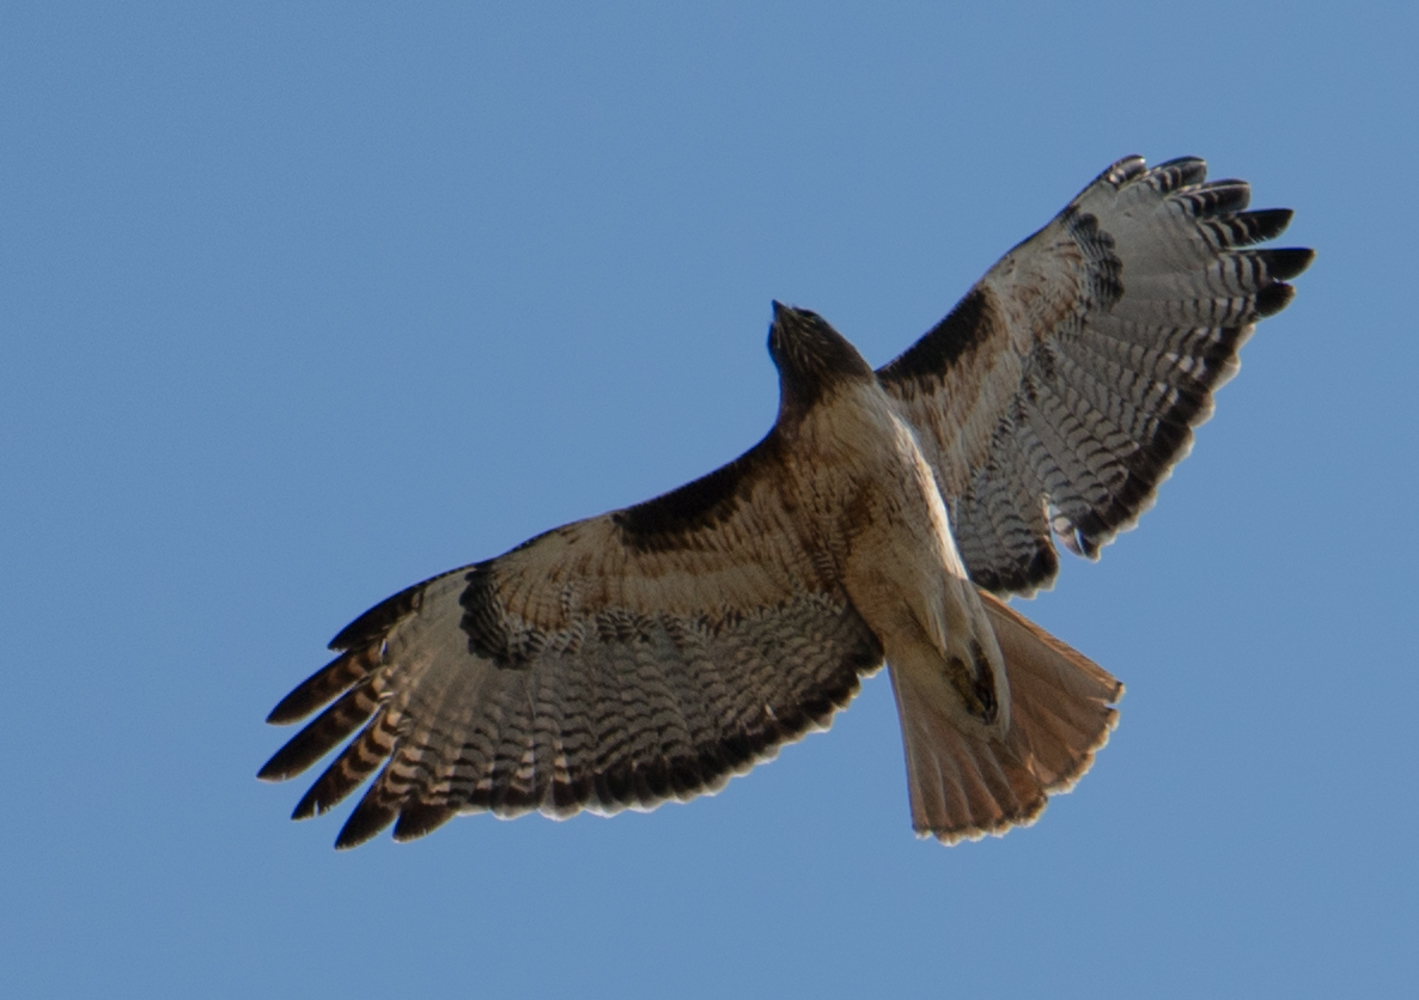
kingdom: Animalia
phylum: Chordata
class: Aves
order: Accipitriformes
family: Accipitridae
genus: Buteo
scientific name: Buteo jamaicensis
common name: Red-tailed hawk
